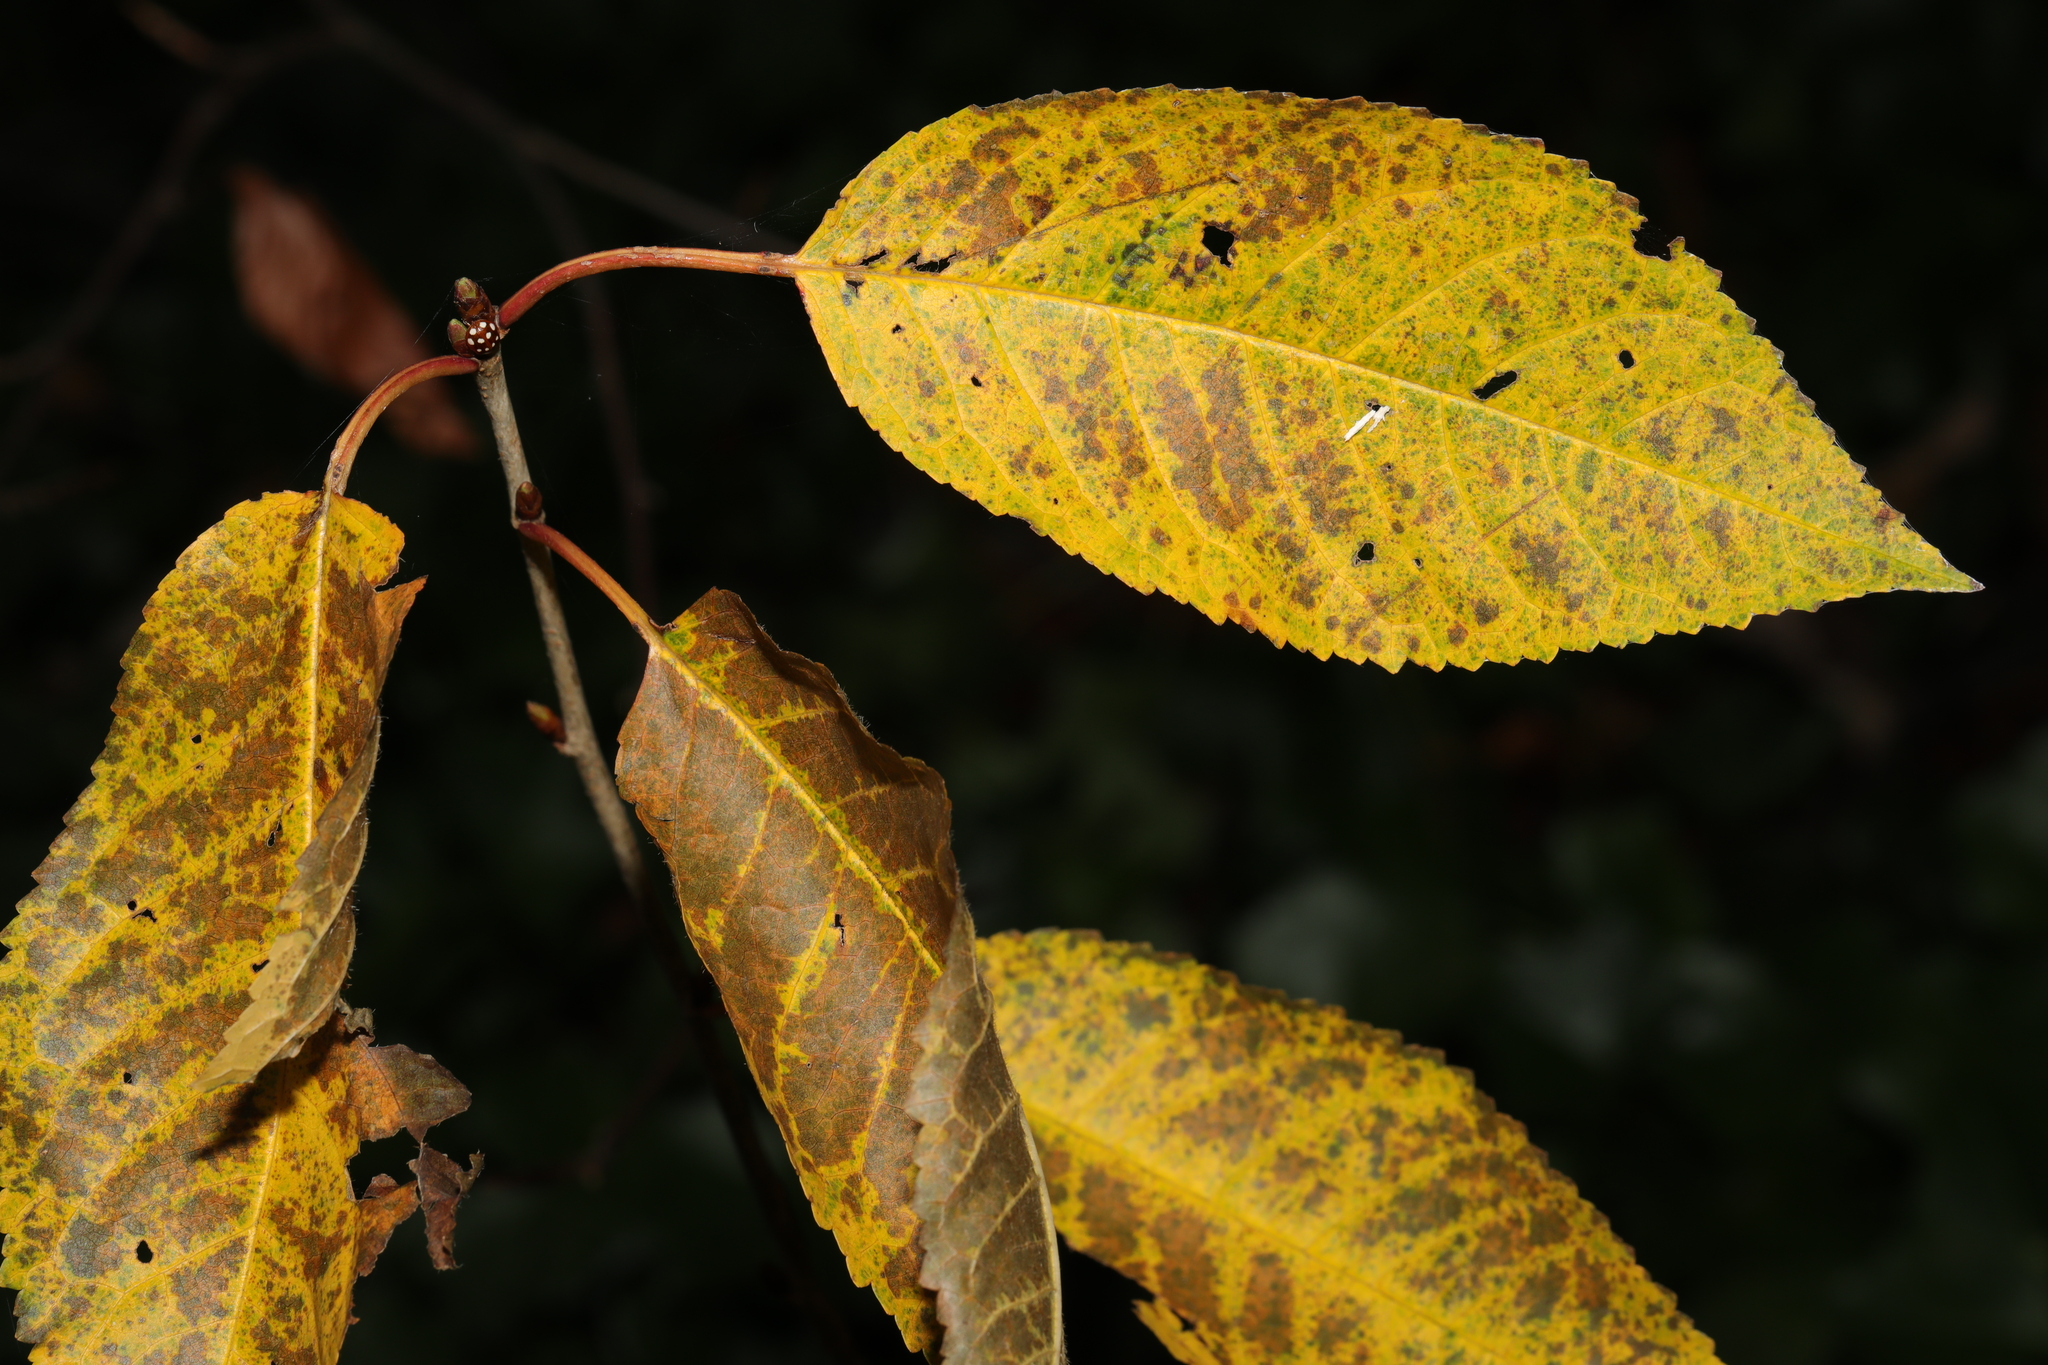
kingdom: Plantae
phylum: Tracheophyta
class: Magnoliopsida
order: Rosales
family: Rosaceae
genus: Prunus
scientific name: Prunus avium
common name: Sweet cherry
